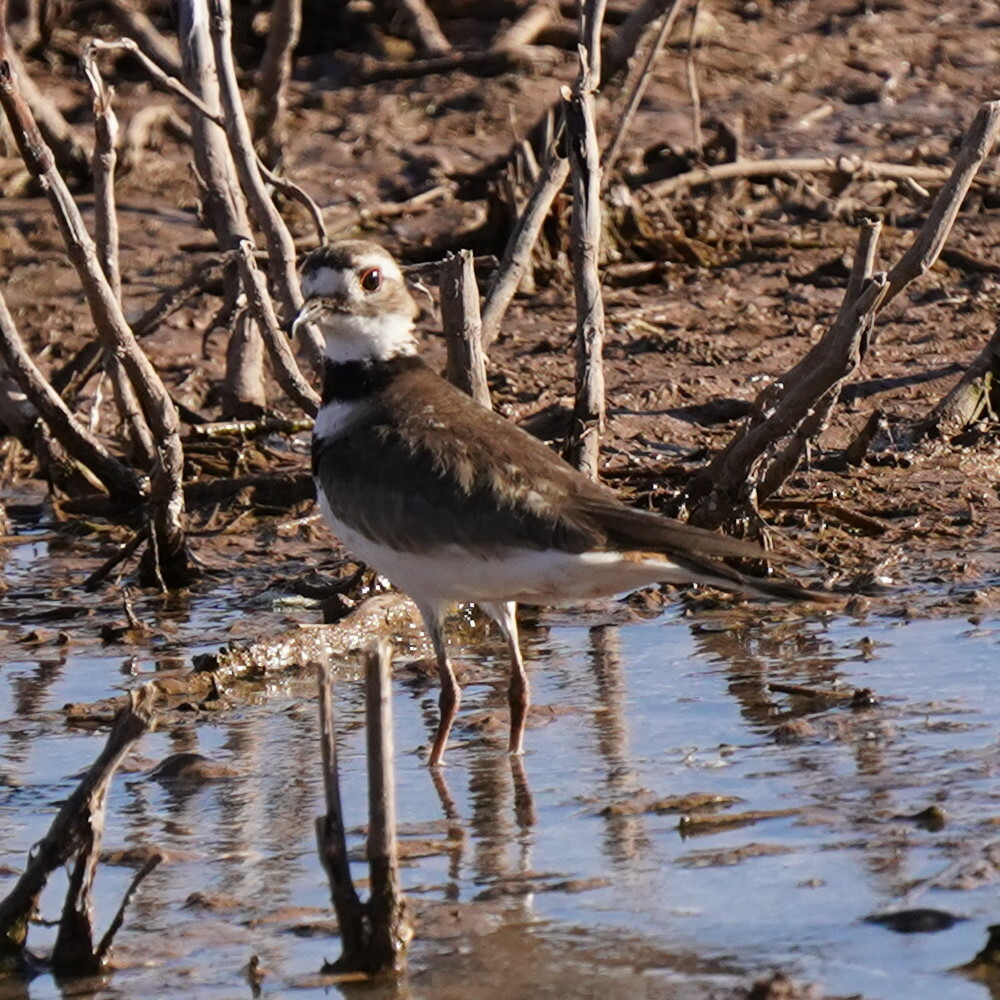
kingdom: Animalia
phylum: Chordata
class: Aves
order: Charadriiformes
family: Charadriidae
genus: Charadrius
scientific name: Charadrius vociferus
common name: Killdeer
